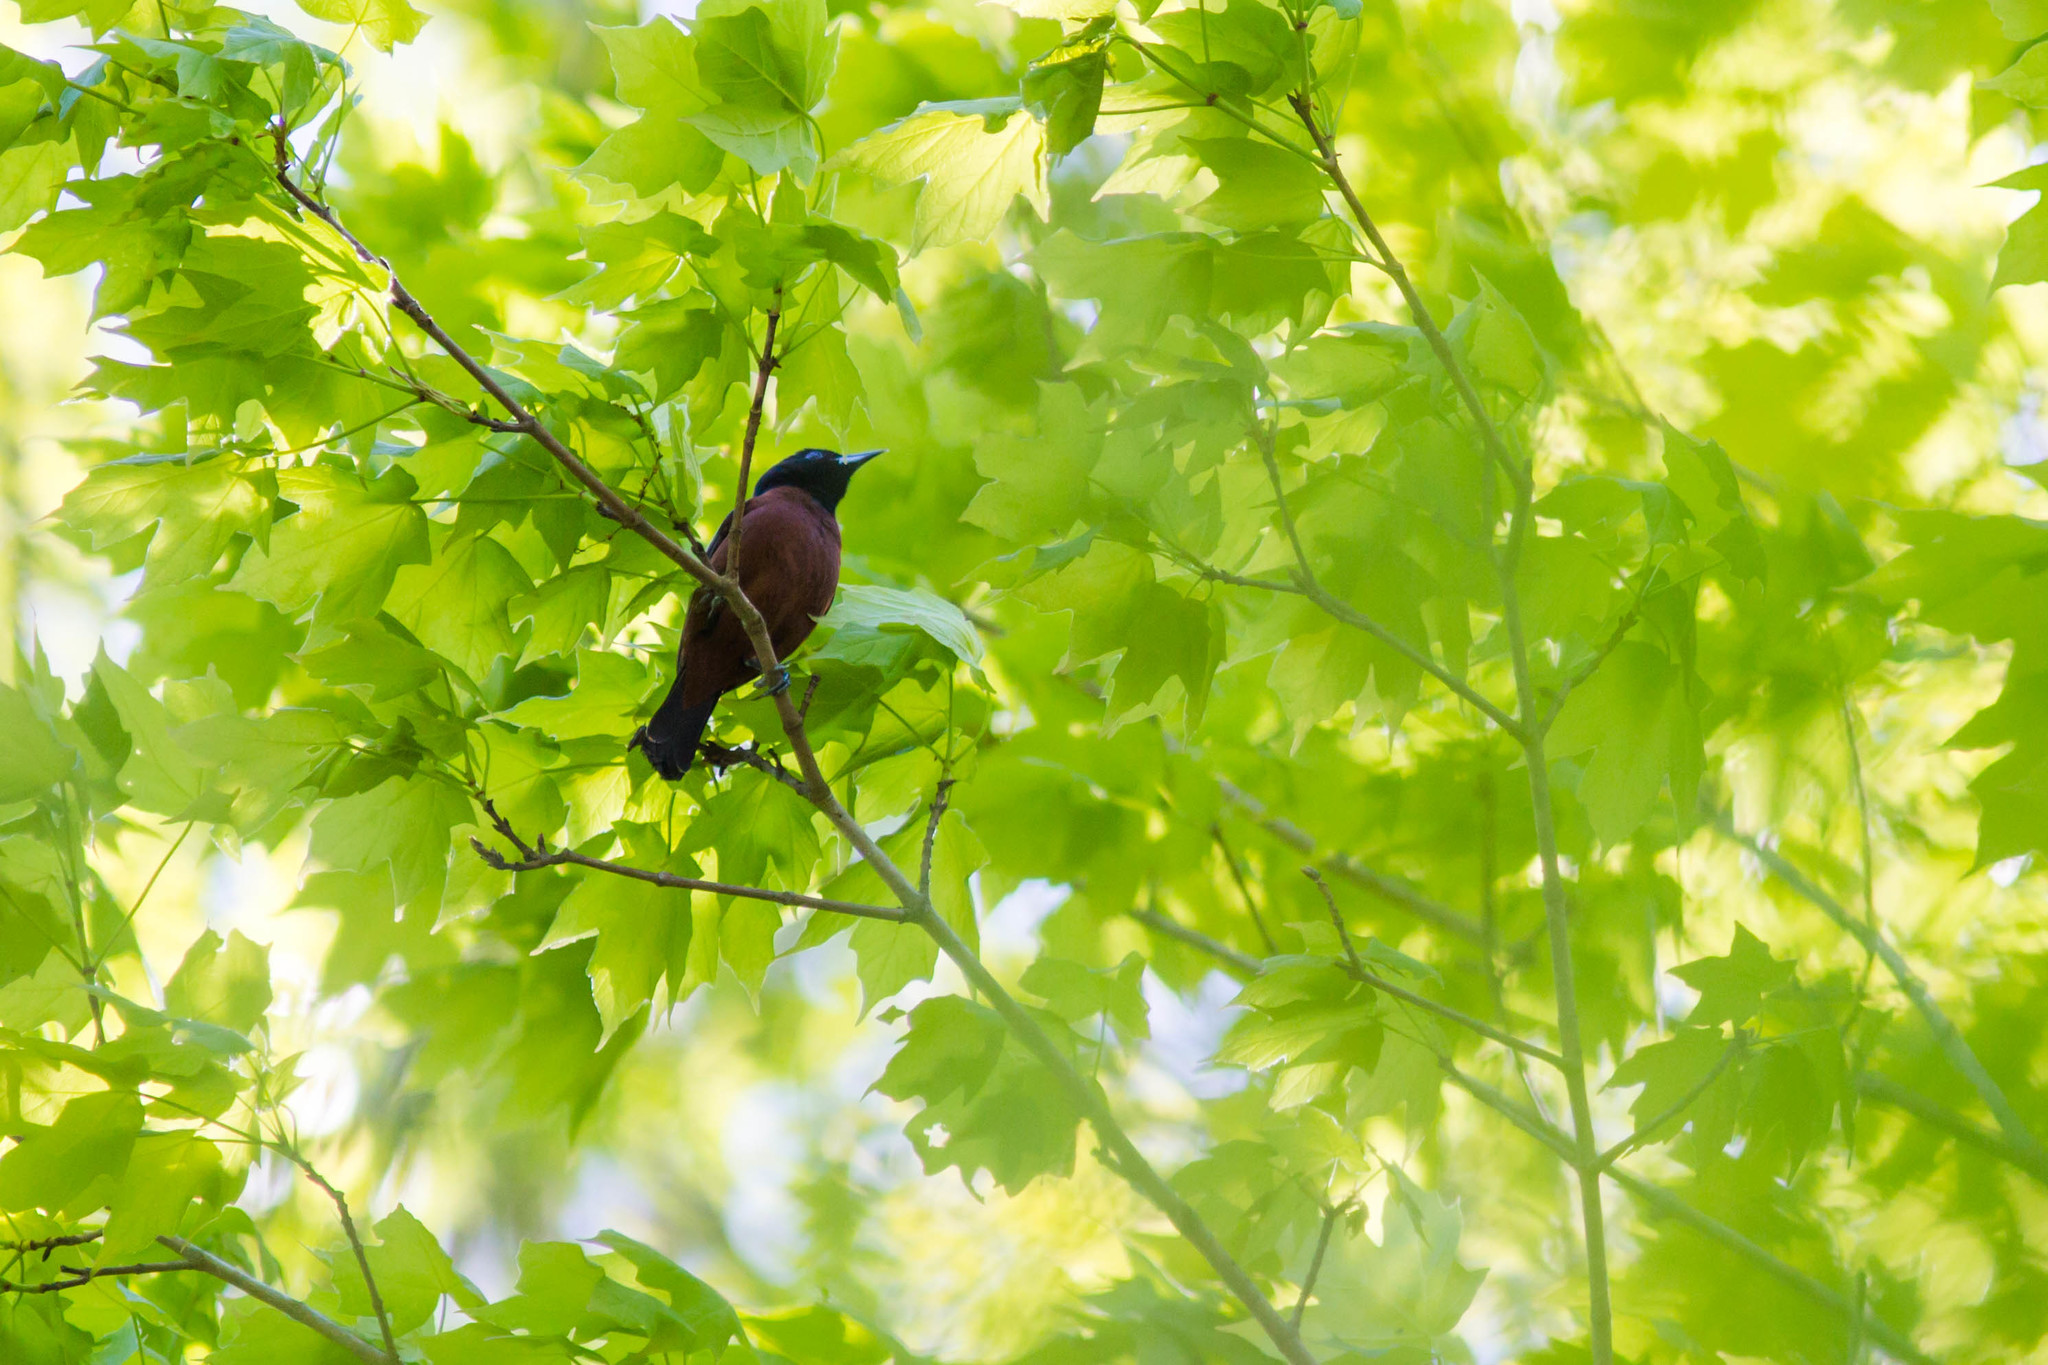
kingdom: Animalia
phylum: Chordata
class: Aves
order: Passeriformes
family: Icteridae
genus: Icterus
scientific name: Icterus spurius
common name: Orchard oriole
